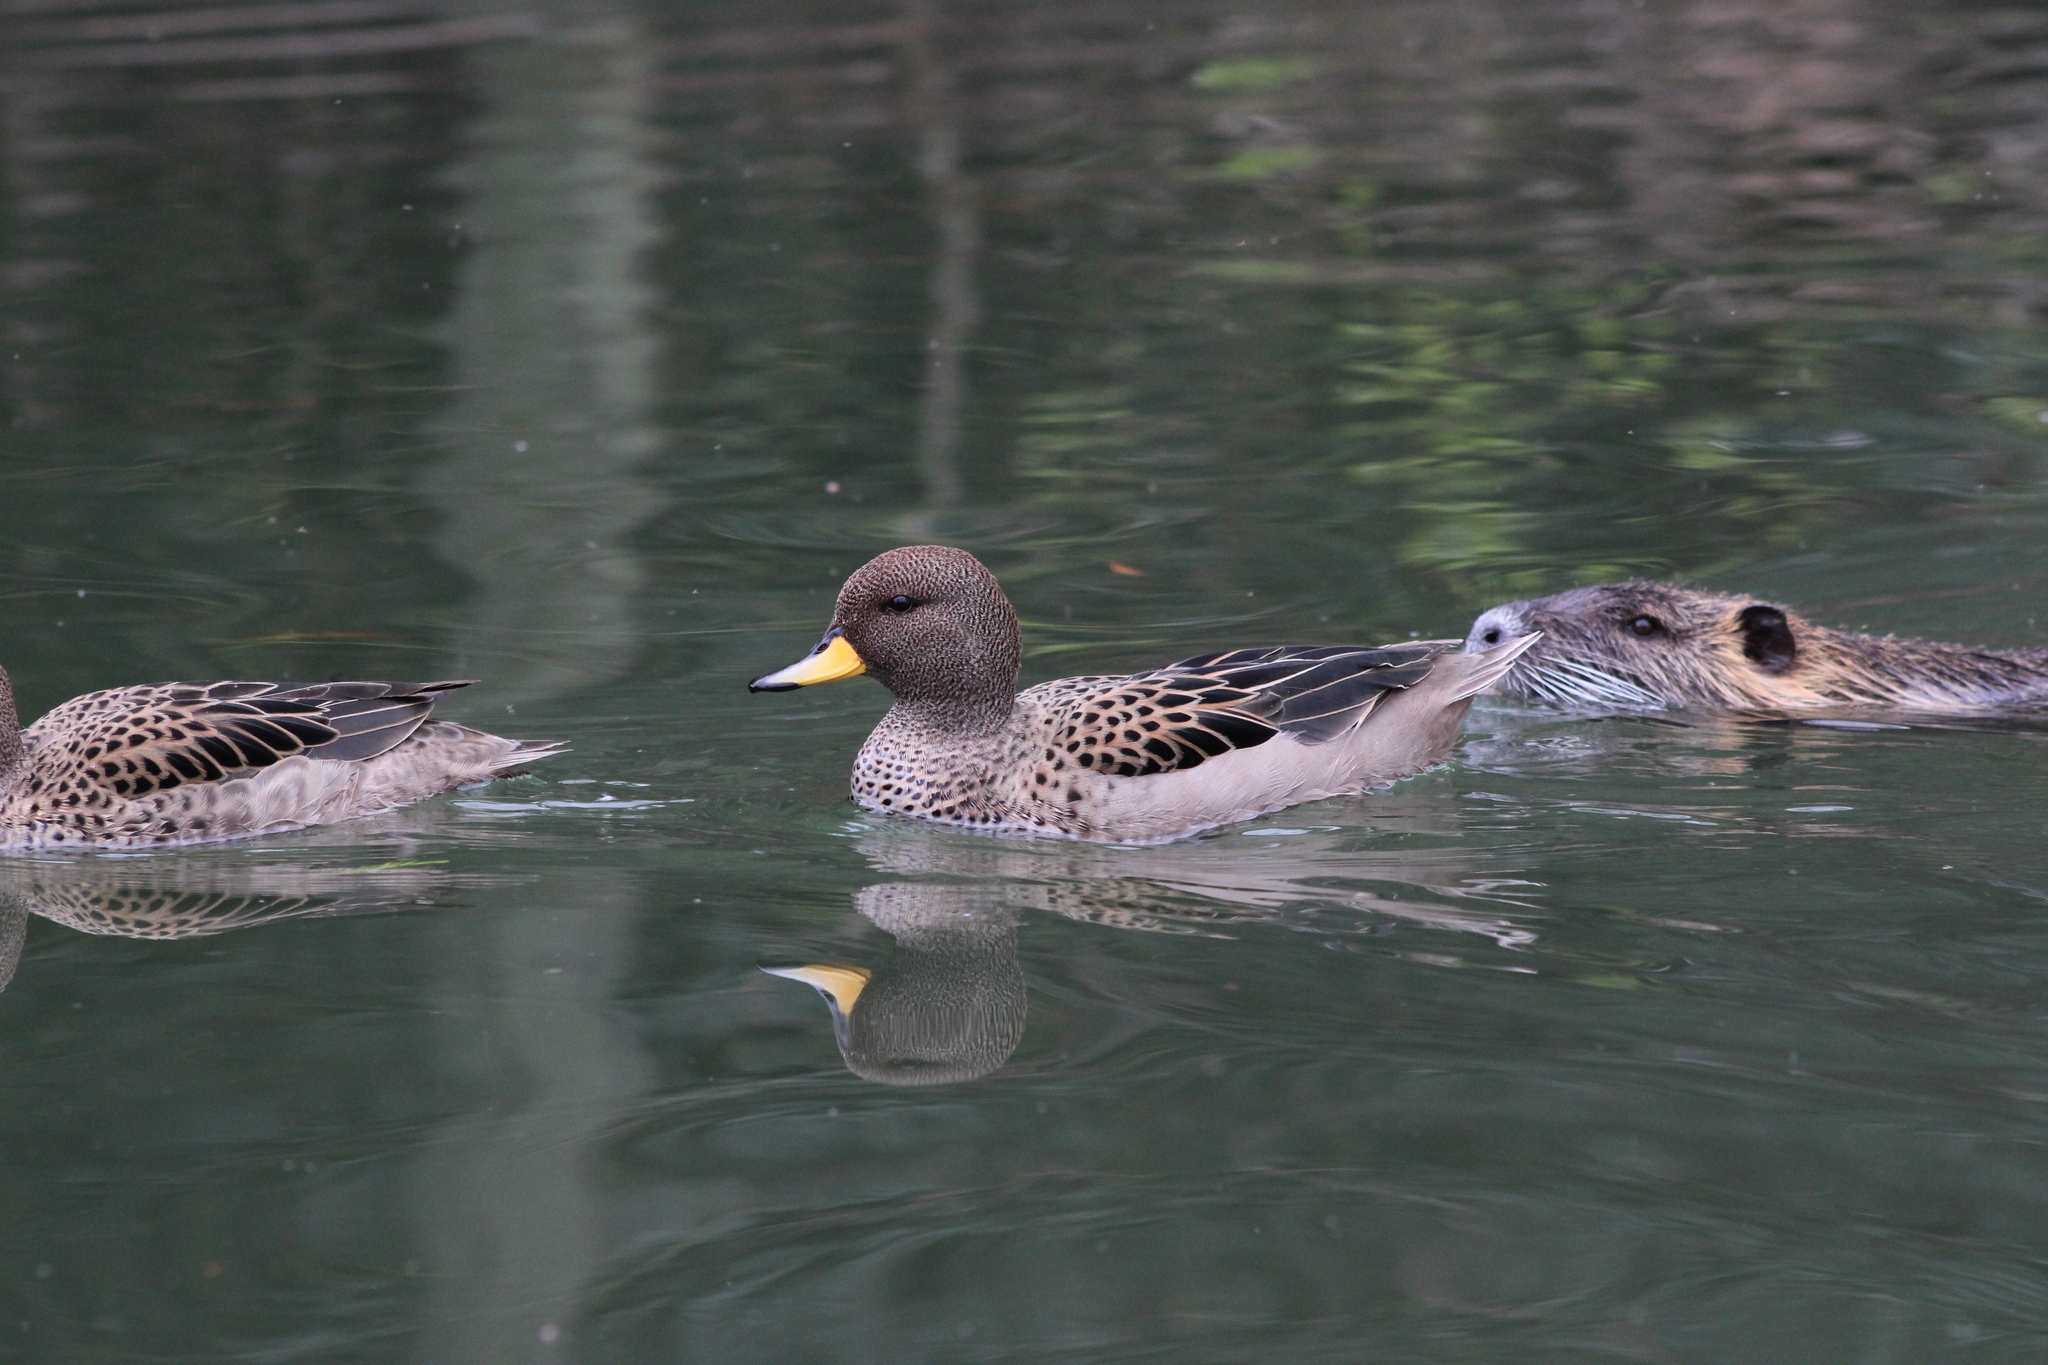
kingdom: Animalia
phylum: Chordata
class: Aves
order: Anseriformes
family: Anatidae
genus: Anas
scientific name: Anas flavirostris
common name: Yellow-billed teal
